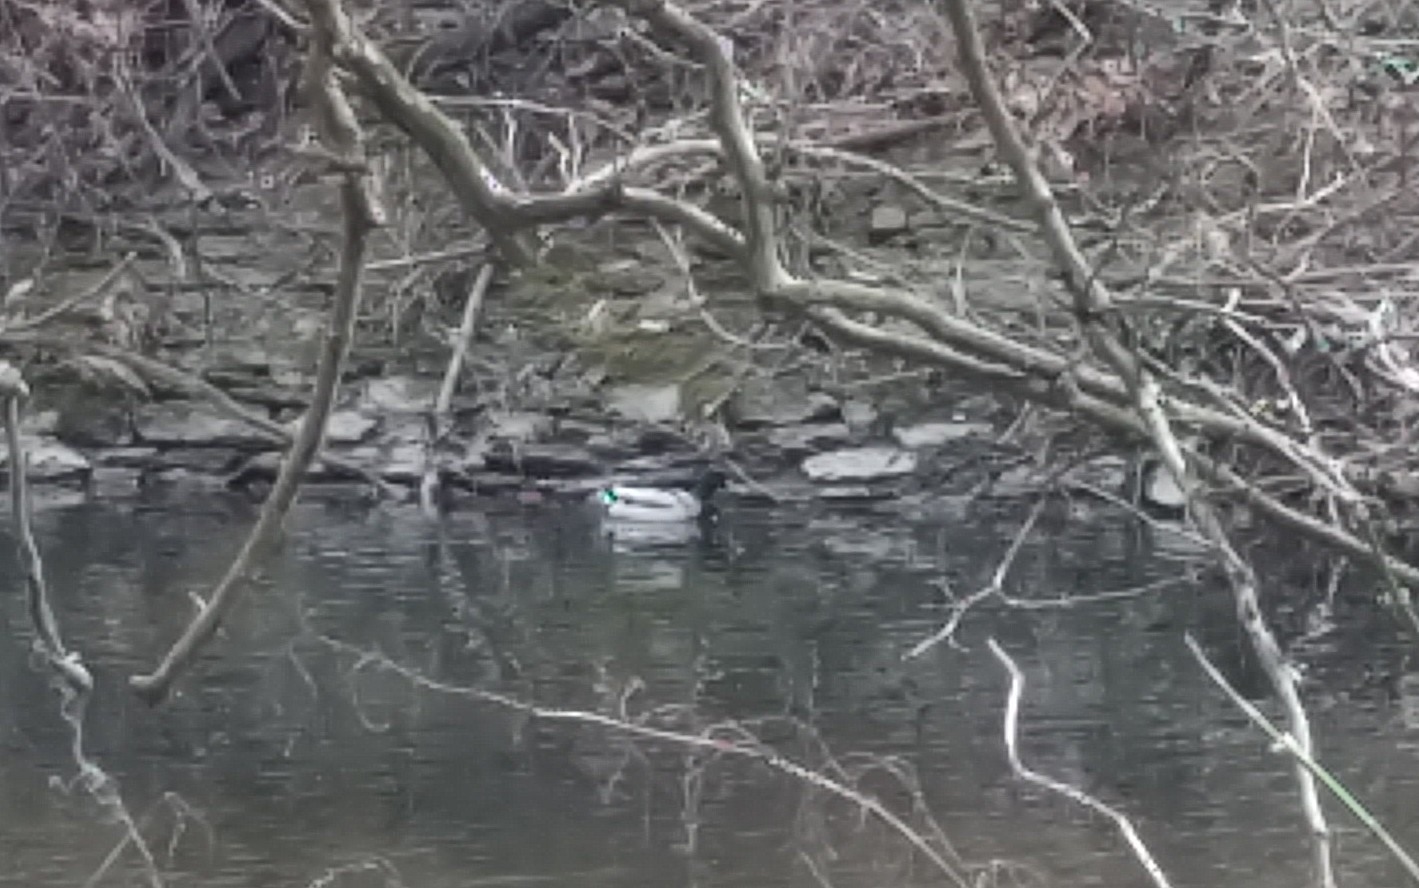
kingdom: Animalia
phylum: Chordata
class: Aves
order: Anseriformes
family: Anatidae
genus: Anas
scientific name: Anas platyrhynchos
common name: Mallard
